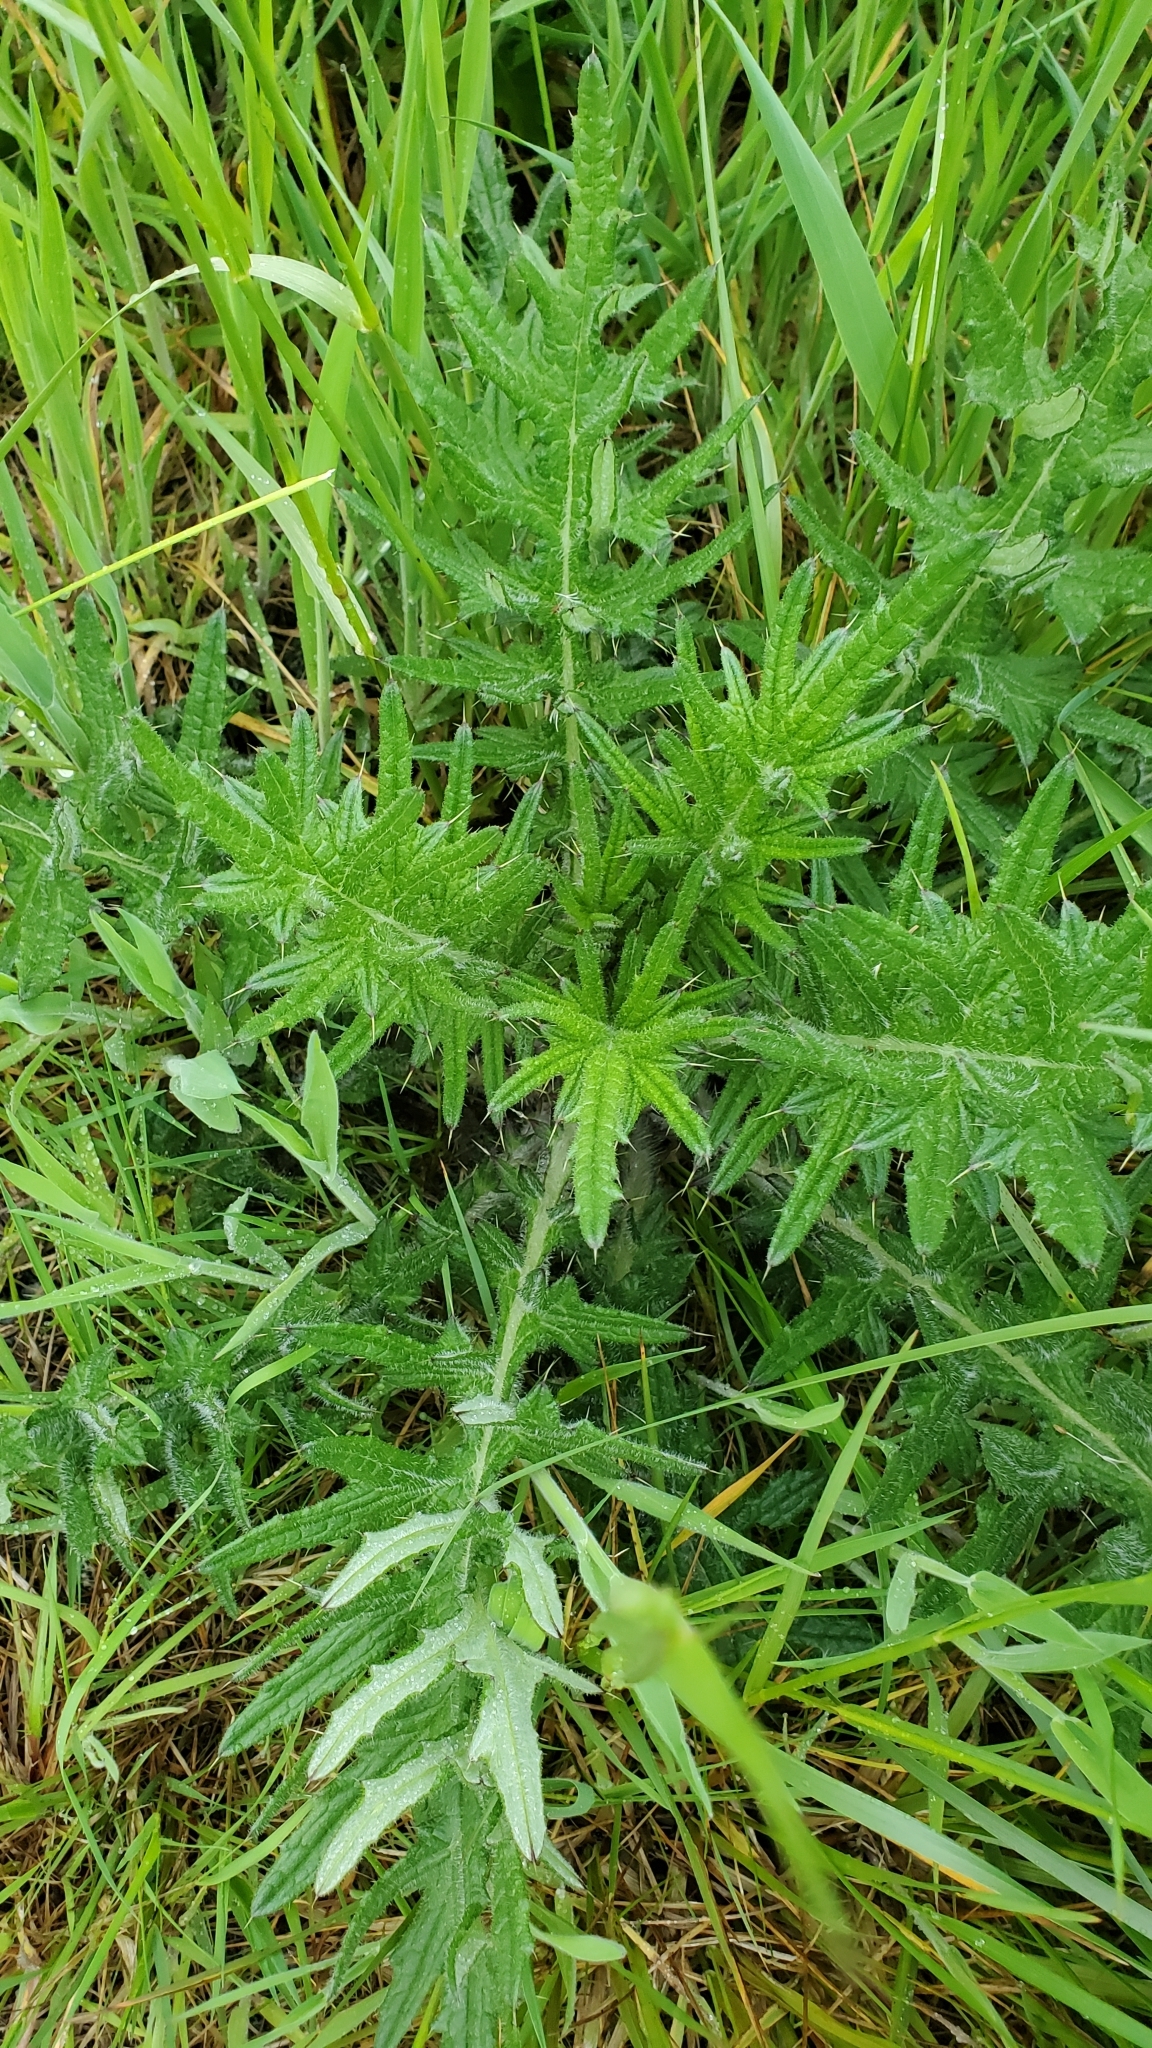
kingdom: Plantae
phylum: Tracheophyta
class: Magnoliopsida
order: Asterales
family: Asteraceae
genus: Cirsium
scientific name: Cirsium vulgare
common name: Bull thistle
